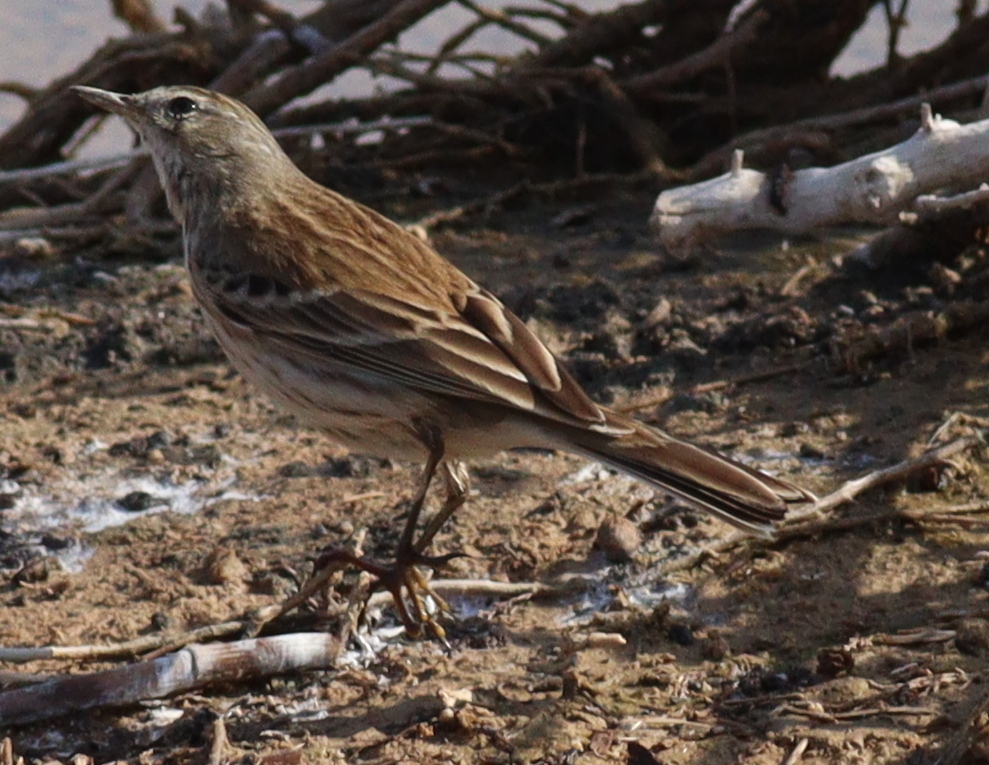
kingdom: Animalia
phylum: Chordata
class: Aves
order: Passeriformes
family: Motacillidae
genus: Anthus
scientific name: Anthus spinoletta
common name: Water pipit
